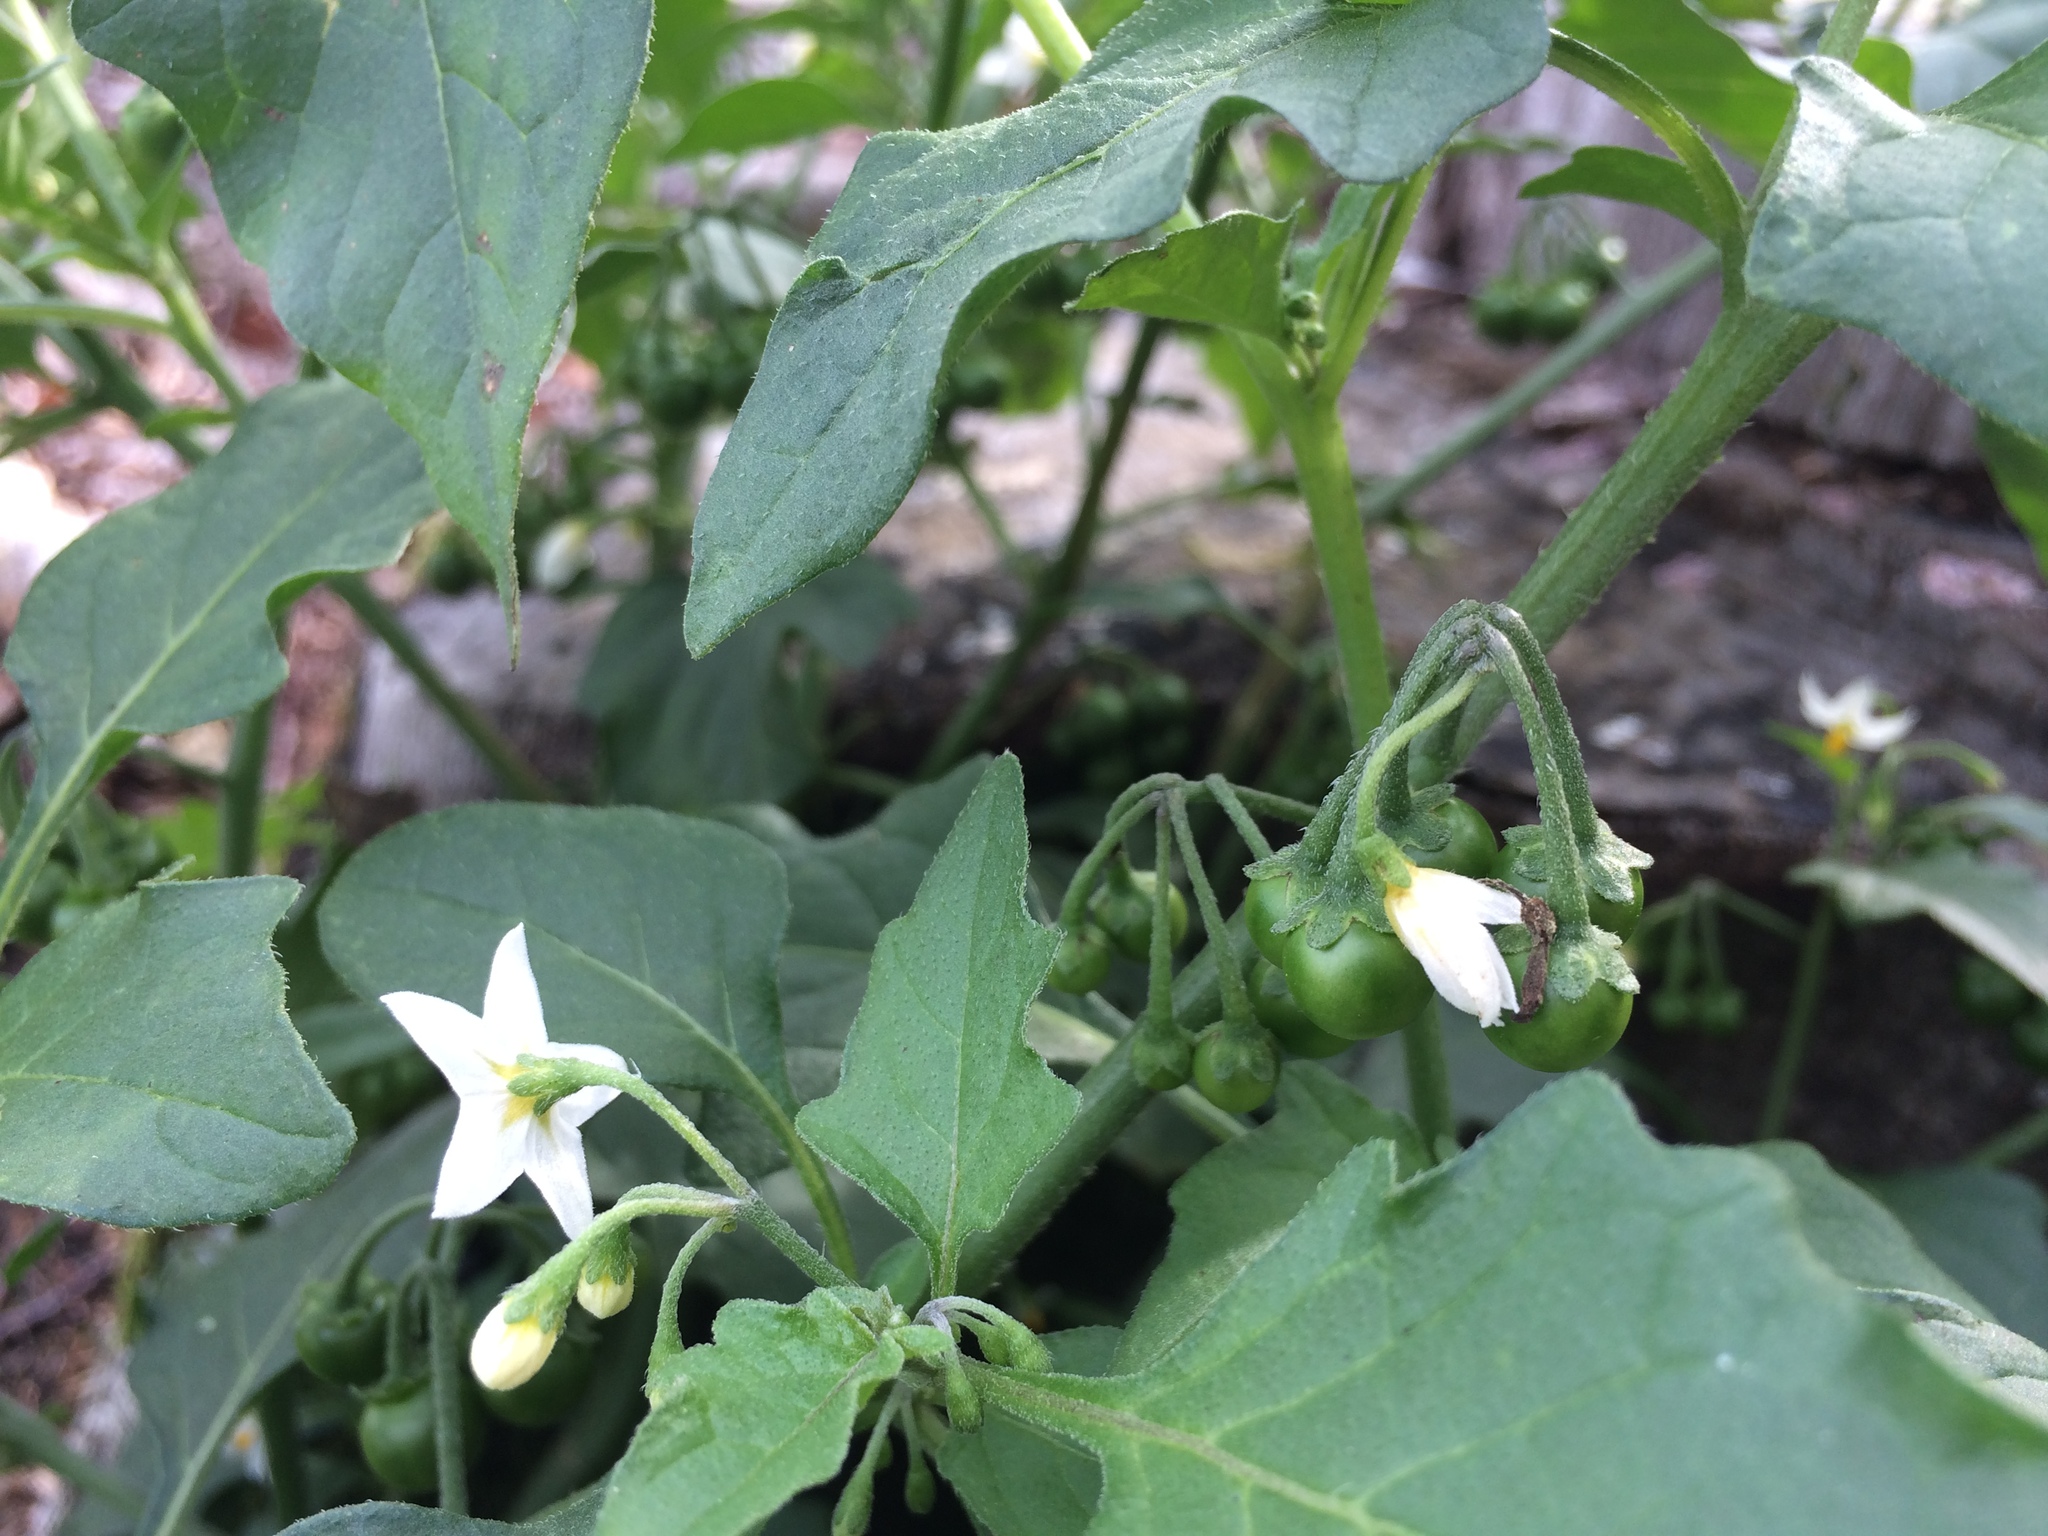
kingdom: Plantae
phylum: Tracheophyta
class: Magnoliopsida
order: Solanales
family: Solanaceae
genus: Solanum
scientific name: Solanum nigrum
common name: Black nightshade
